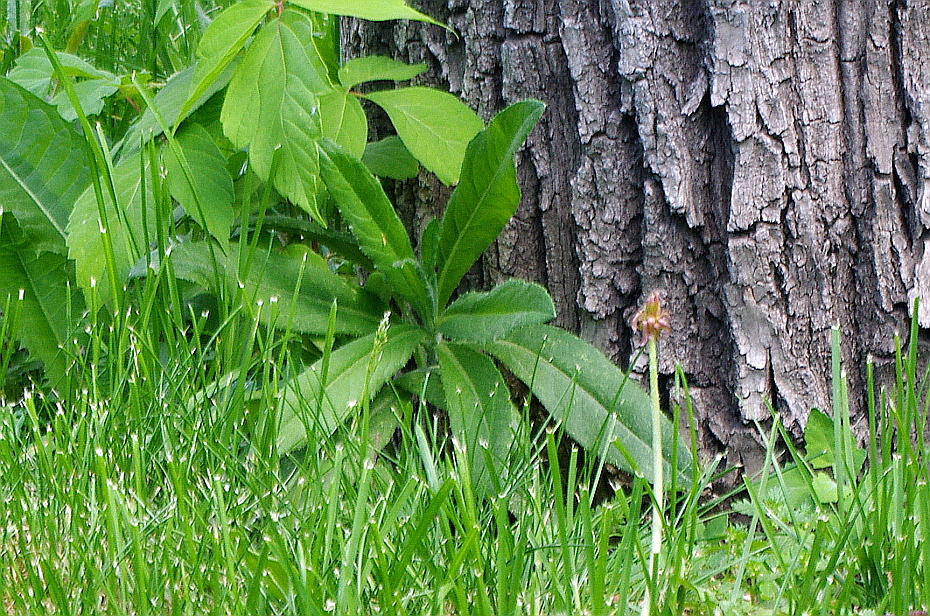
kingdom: Plantae
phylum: Tracheophyta
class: Magnoliopsida
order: Asterales
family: Asteraceae
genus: Cirsium
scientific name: Cirsium arvense
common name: Creeping thistle
